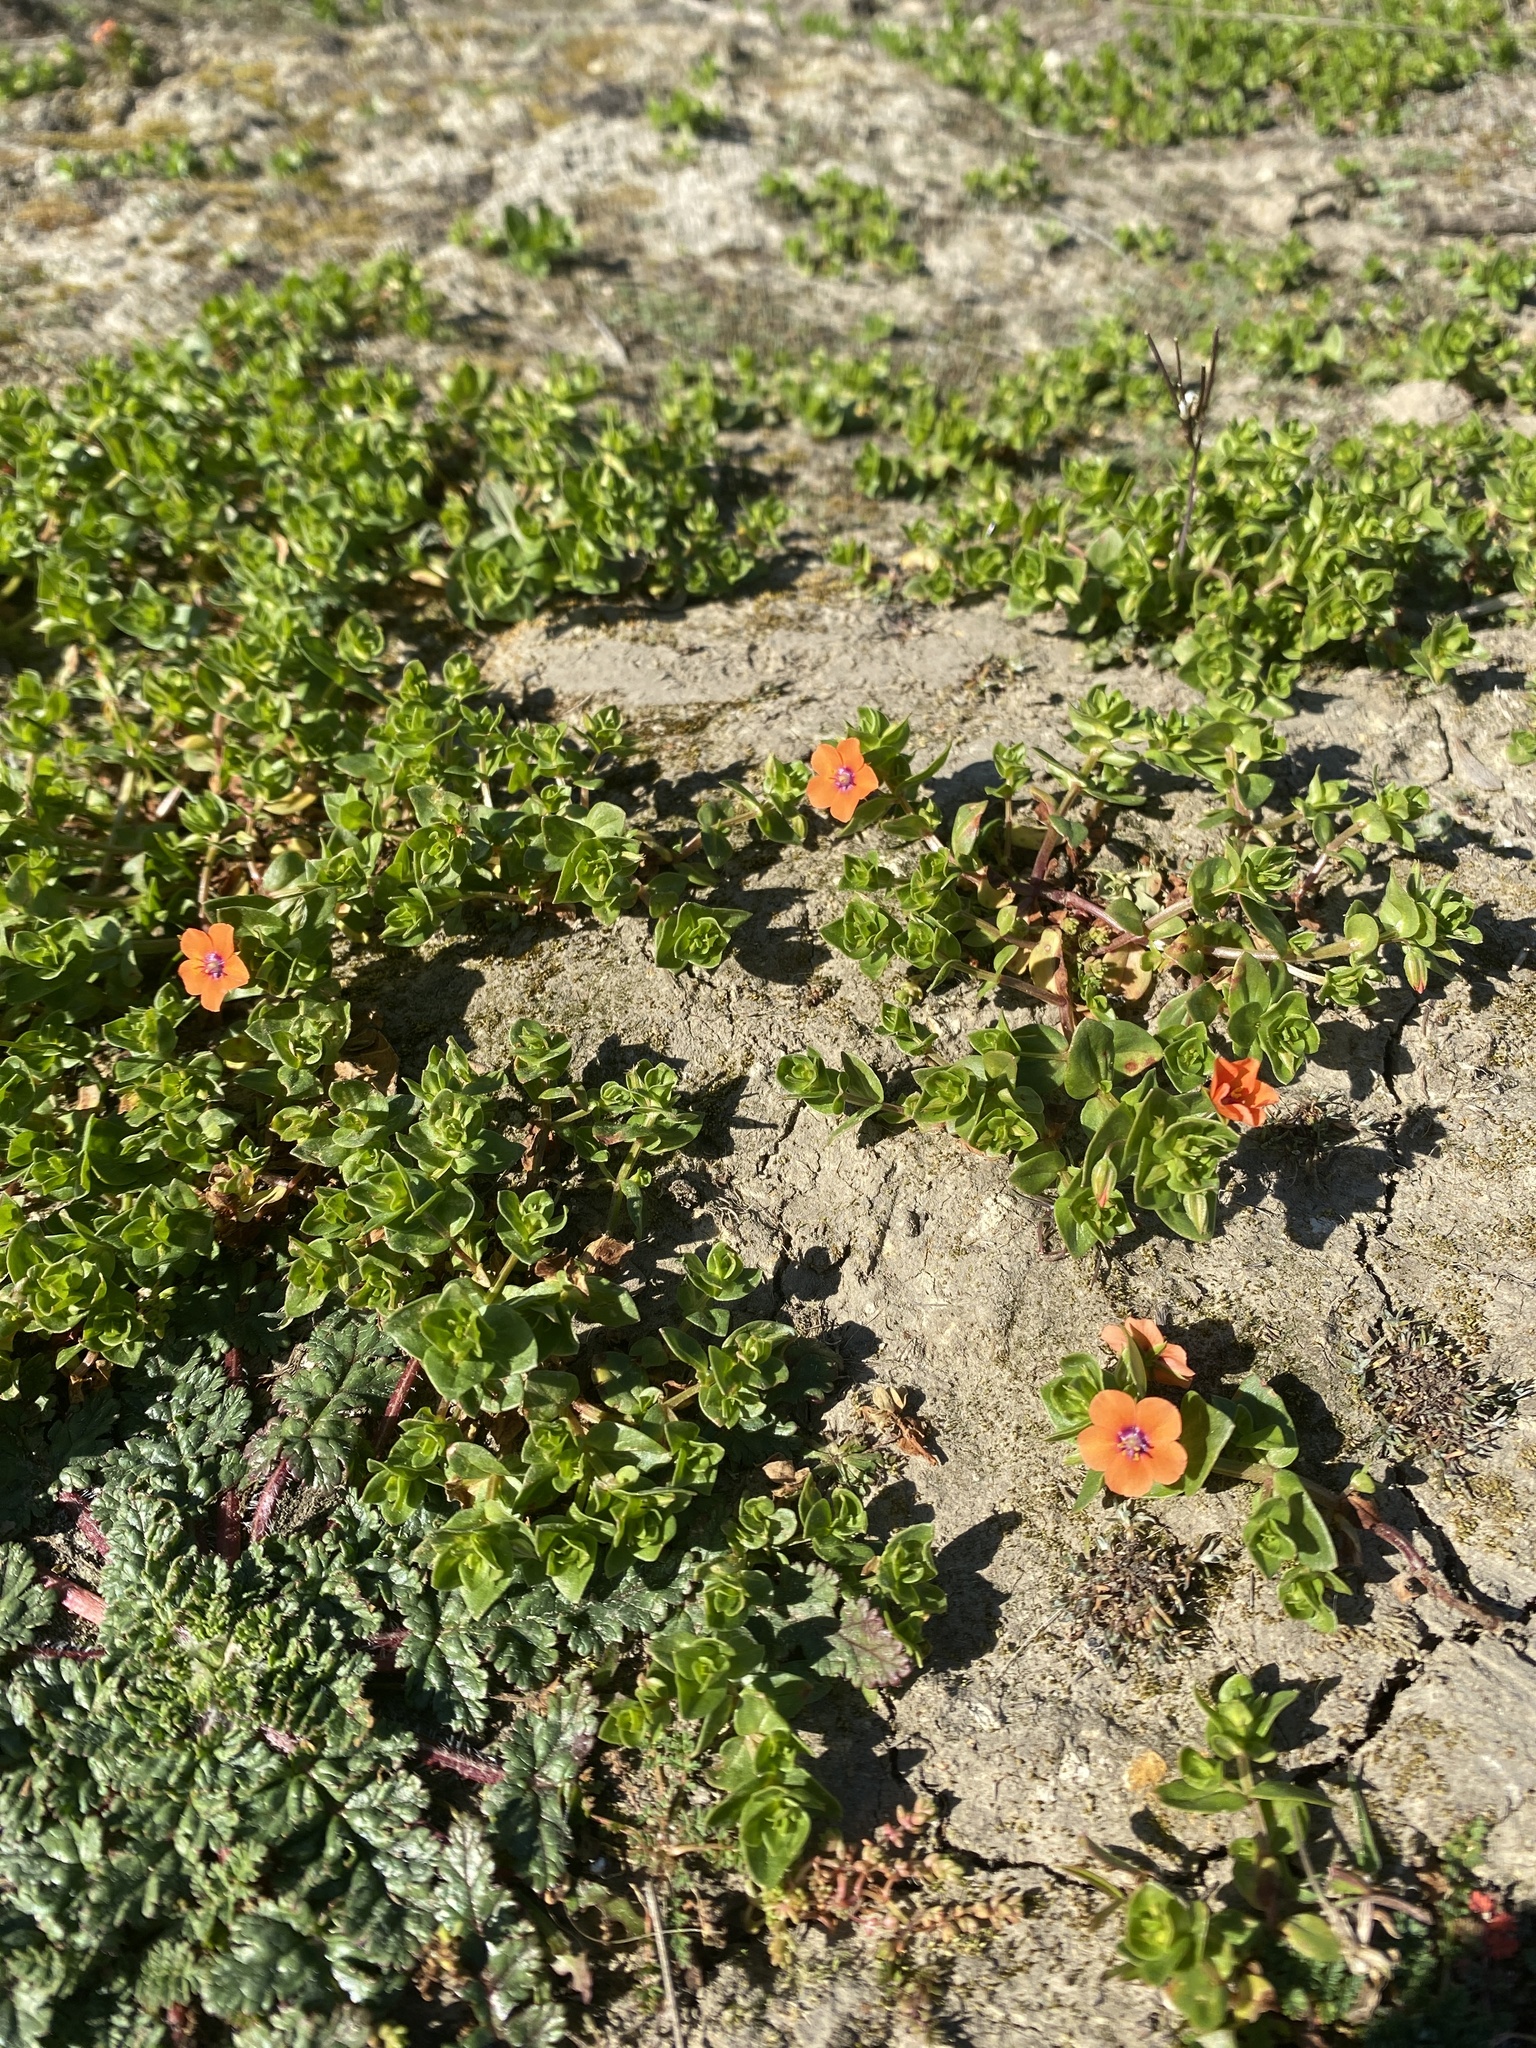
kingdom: Plantae
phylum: Tracheophyta
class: Magnoliopsida
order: Ericales
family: Primulaceae
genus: Lysimachia
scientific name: Lysimachia arvensis
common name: Scarlet pimpernel
